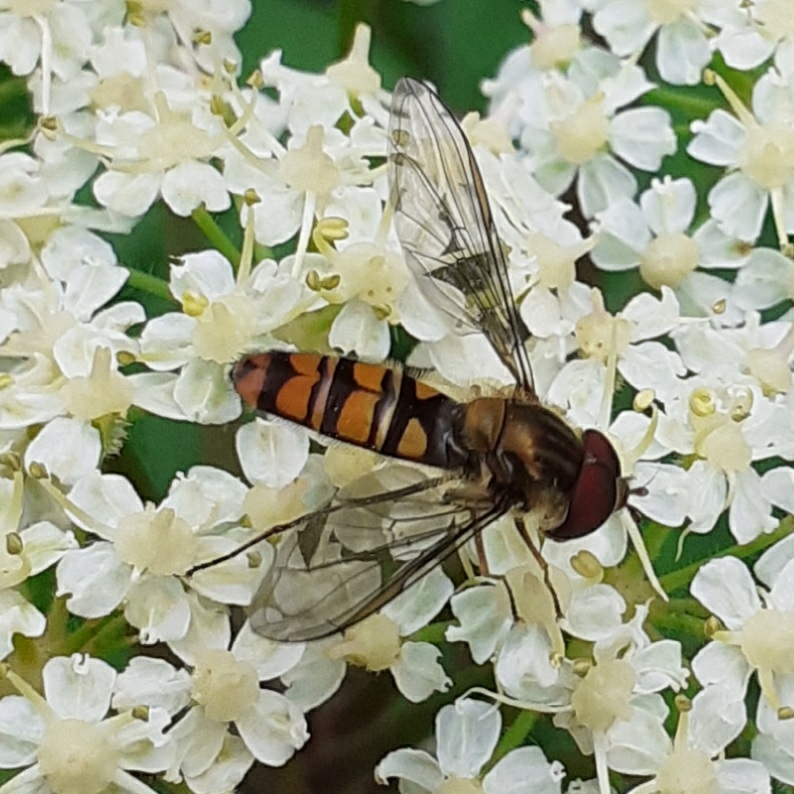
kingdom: Animalia
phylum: Arthropoda
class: Insecta
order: Diptera
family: Syrphidae
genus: Episyrphus
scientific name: Episyrphus balteatus
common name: Marmalade hoverfly
